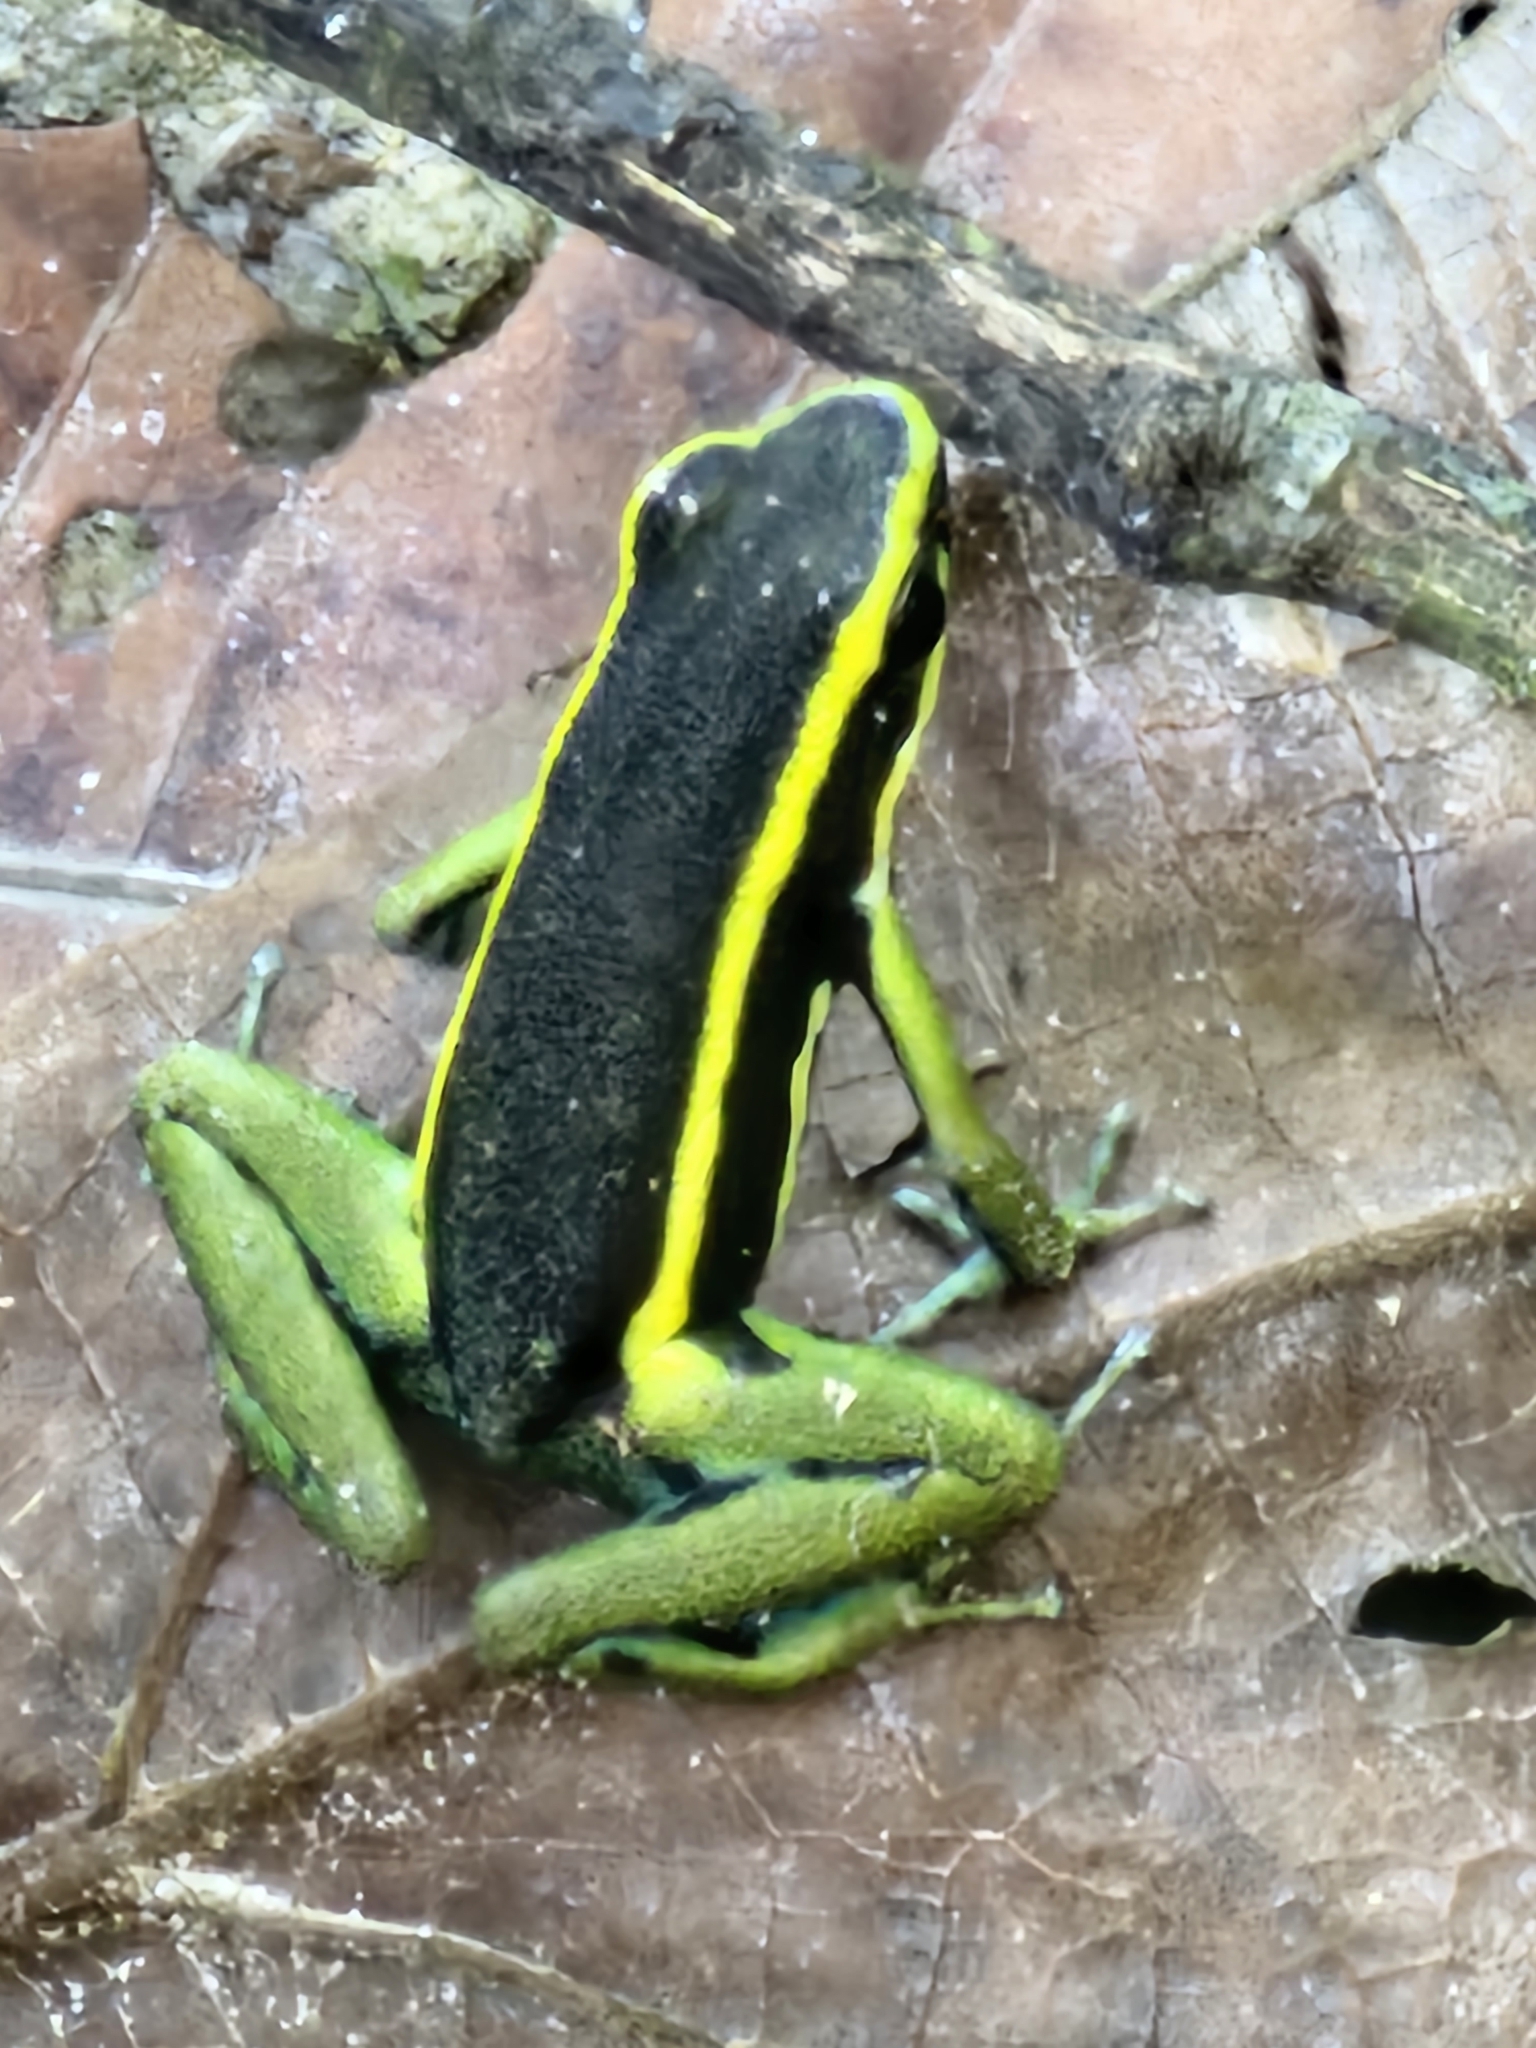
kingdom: Animalia
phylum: Chordata
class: Amphibia
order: Anura
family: Dendrobatidae
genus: Ameerega
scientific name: Ameerega trivittata
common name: Three-striped arrow-poison frog
